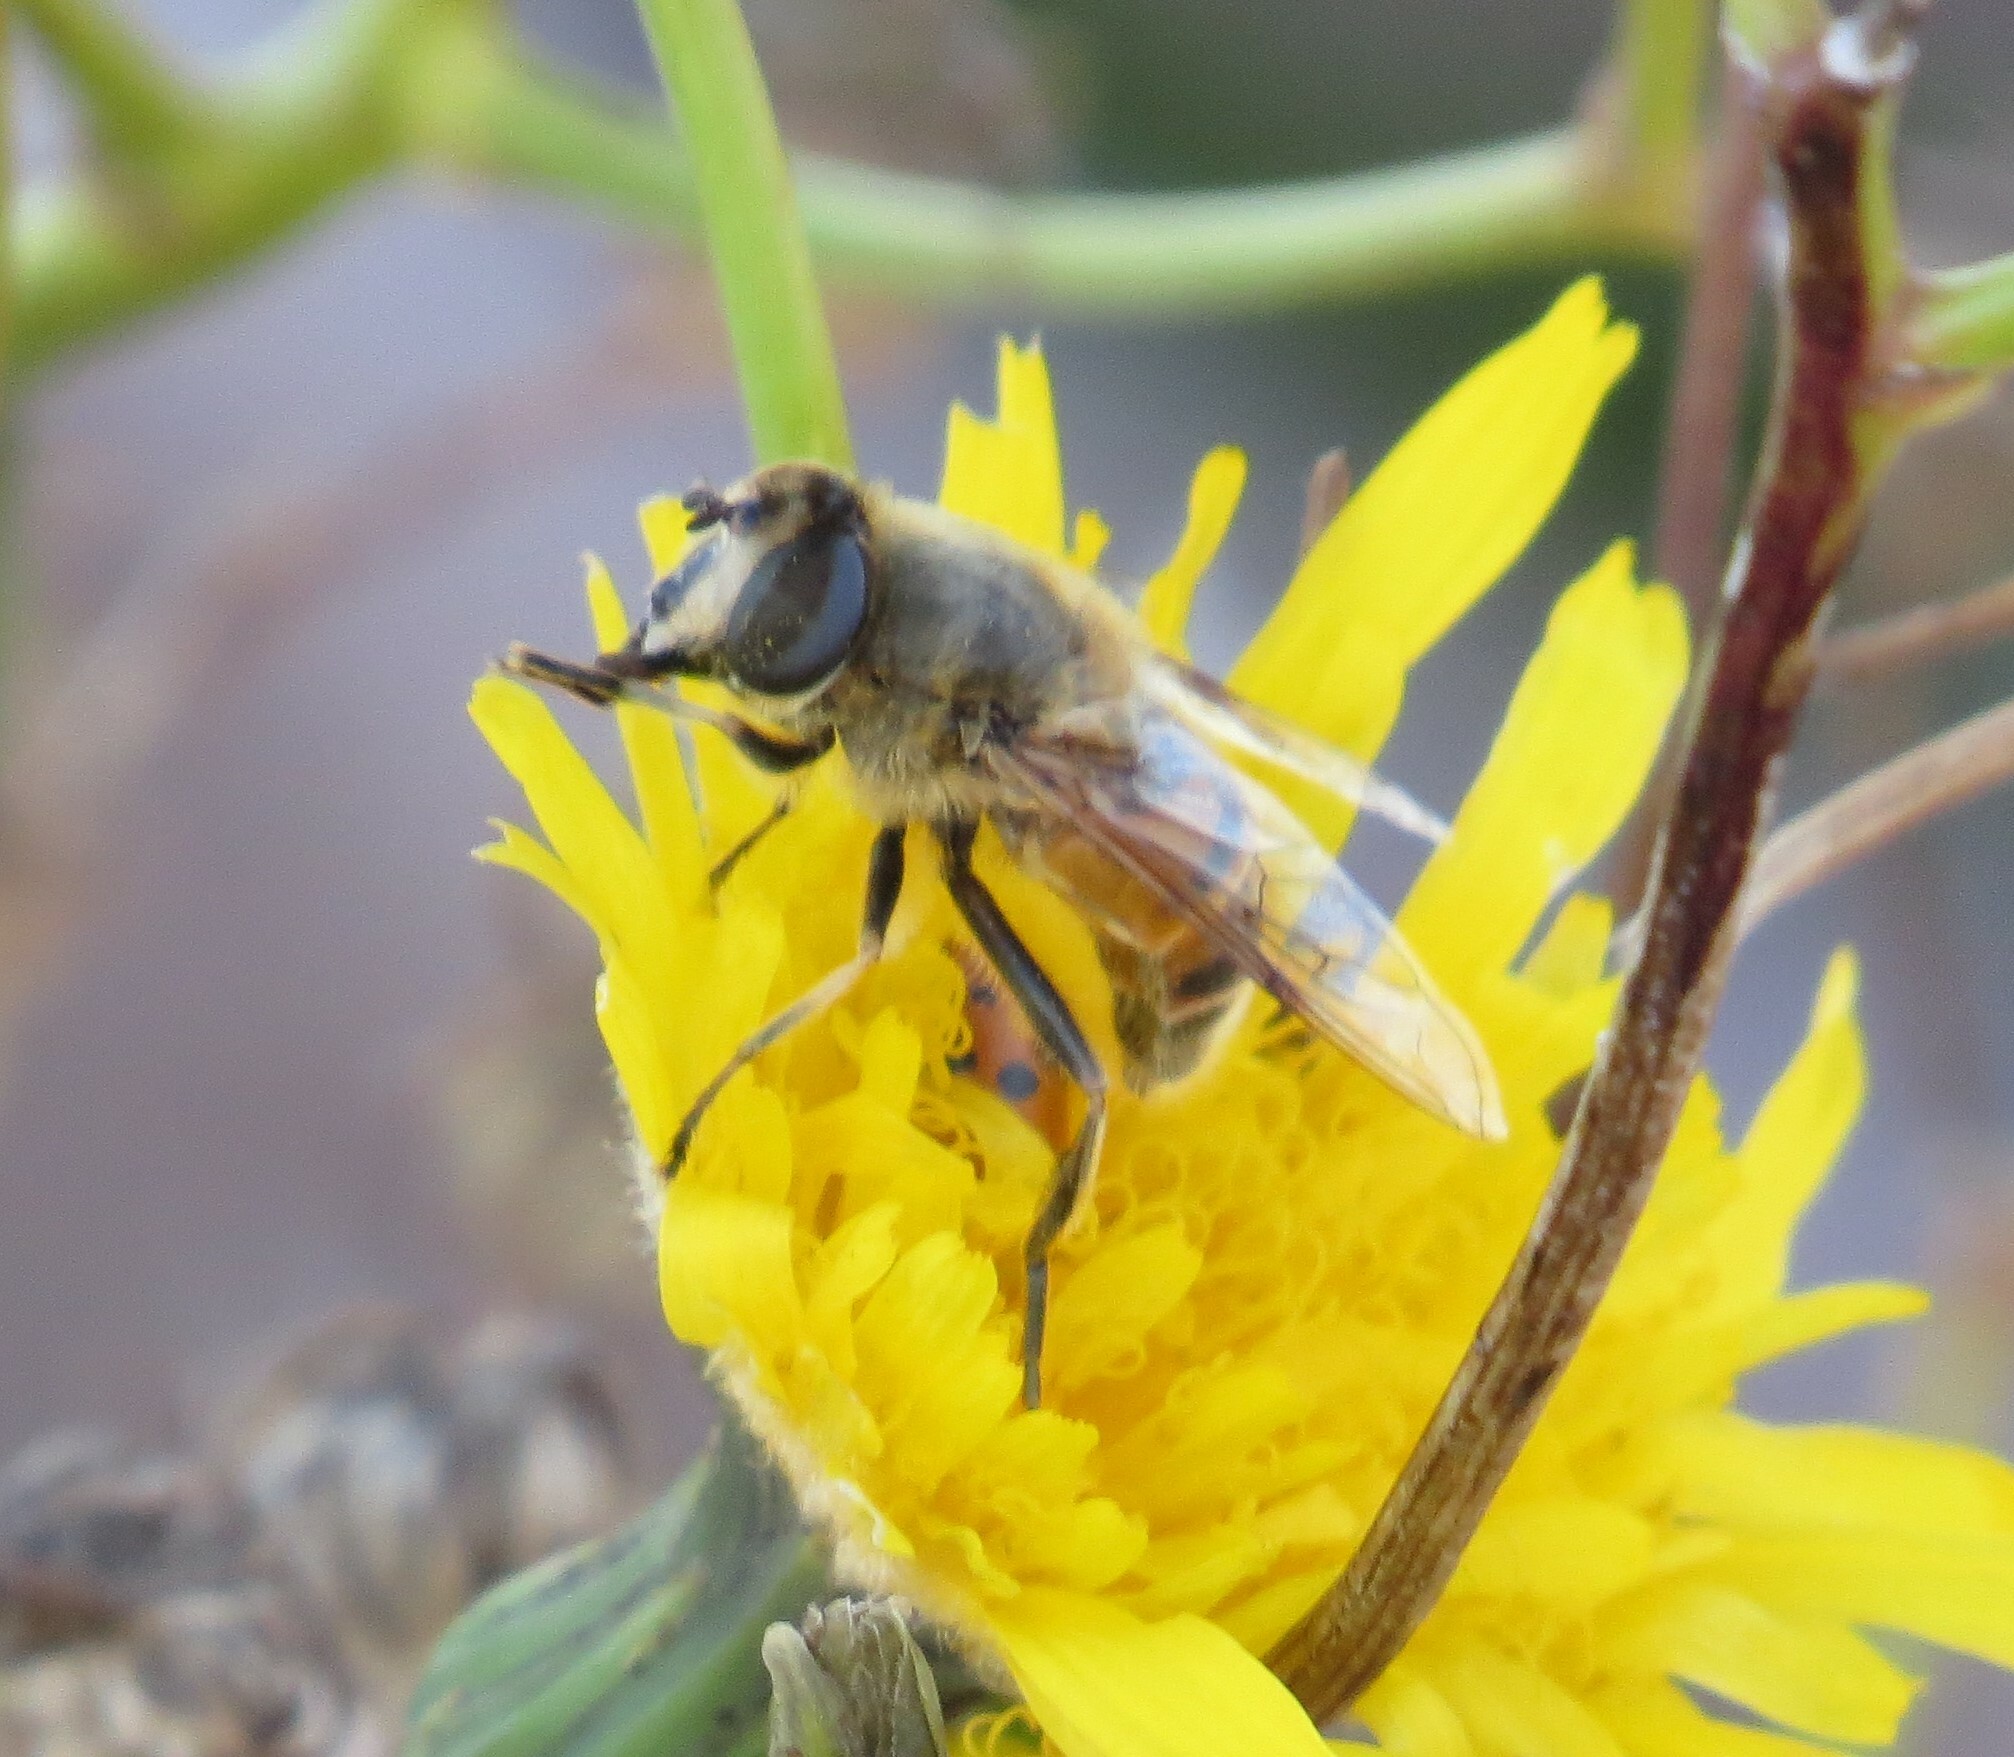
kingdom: Animalia
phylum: Arthropoda
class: Insecta
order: Diptera
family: Syrphidae
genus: Eristalis
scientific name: Eristalis tenax
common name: Drone fly
